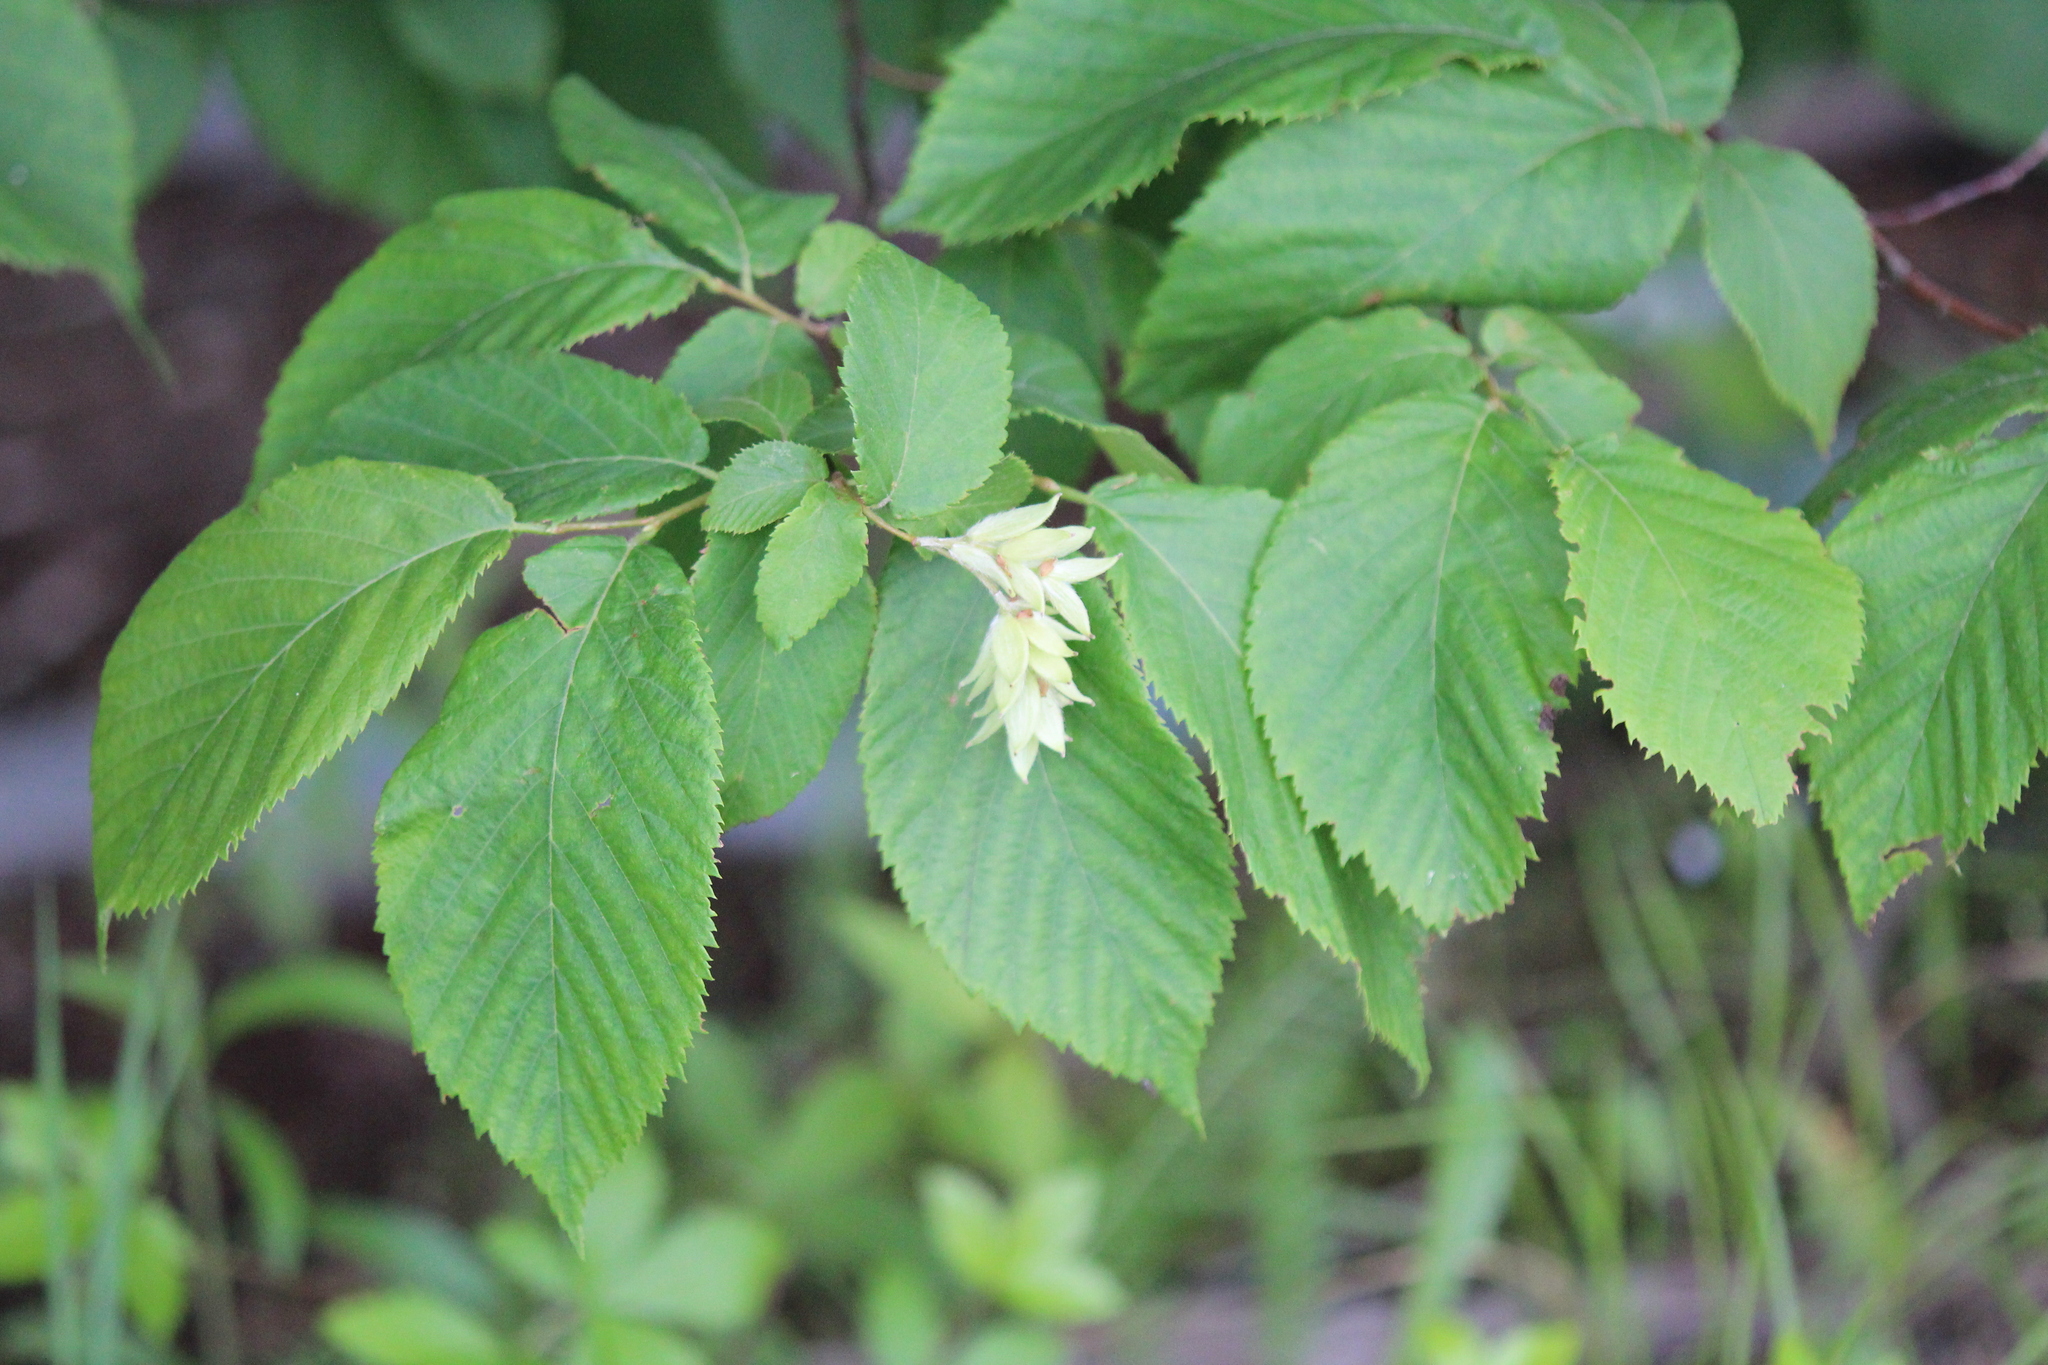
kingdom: Plantae
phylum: Tracheophyta
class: Magnoliopsida
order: Fagales
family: Betulaceae
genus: Ostrya
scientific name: Ostrya virginiana
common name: Ironwood
